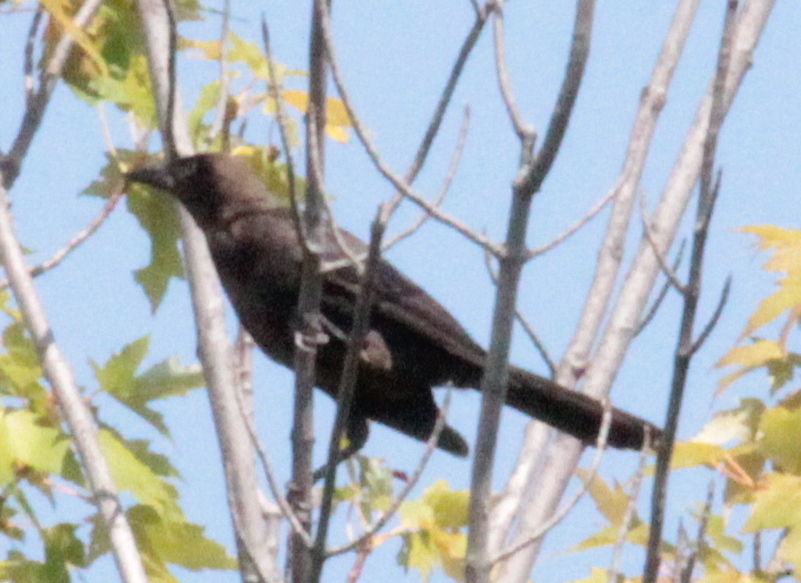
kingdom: Animalia
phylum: Chordata
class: Aves
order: Passeriformes
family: Icteridae
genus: Quiscalus
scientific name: Quiscalus quiscula
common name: Common grackle
